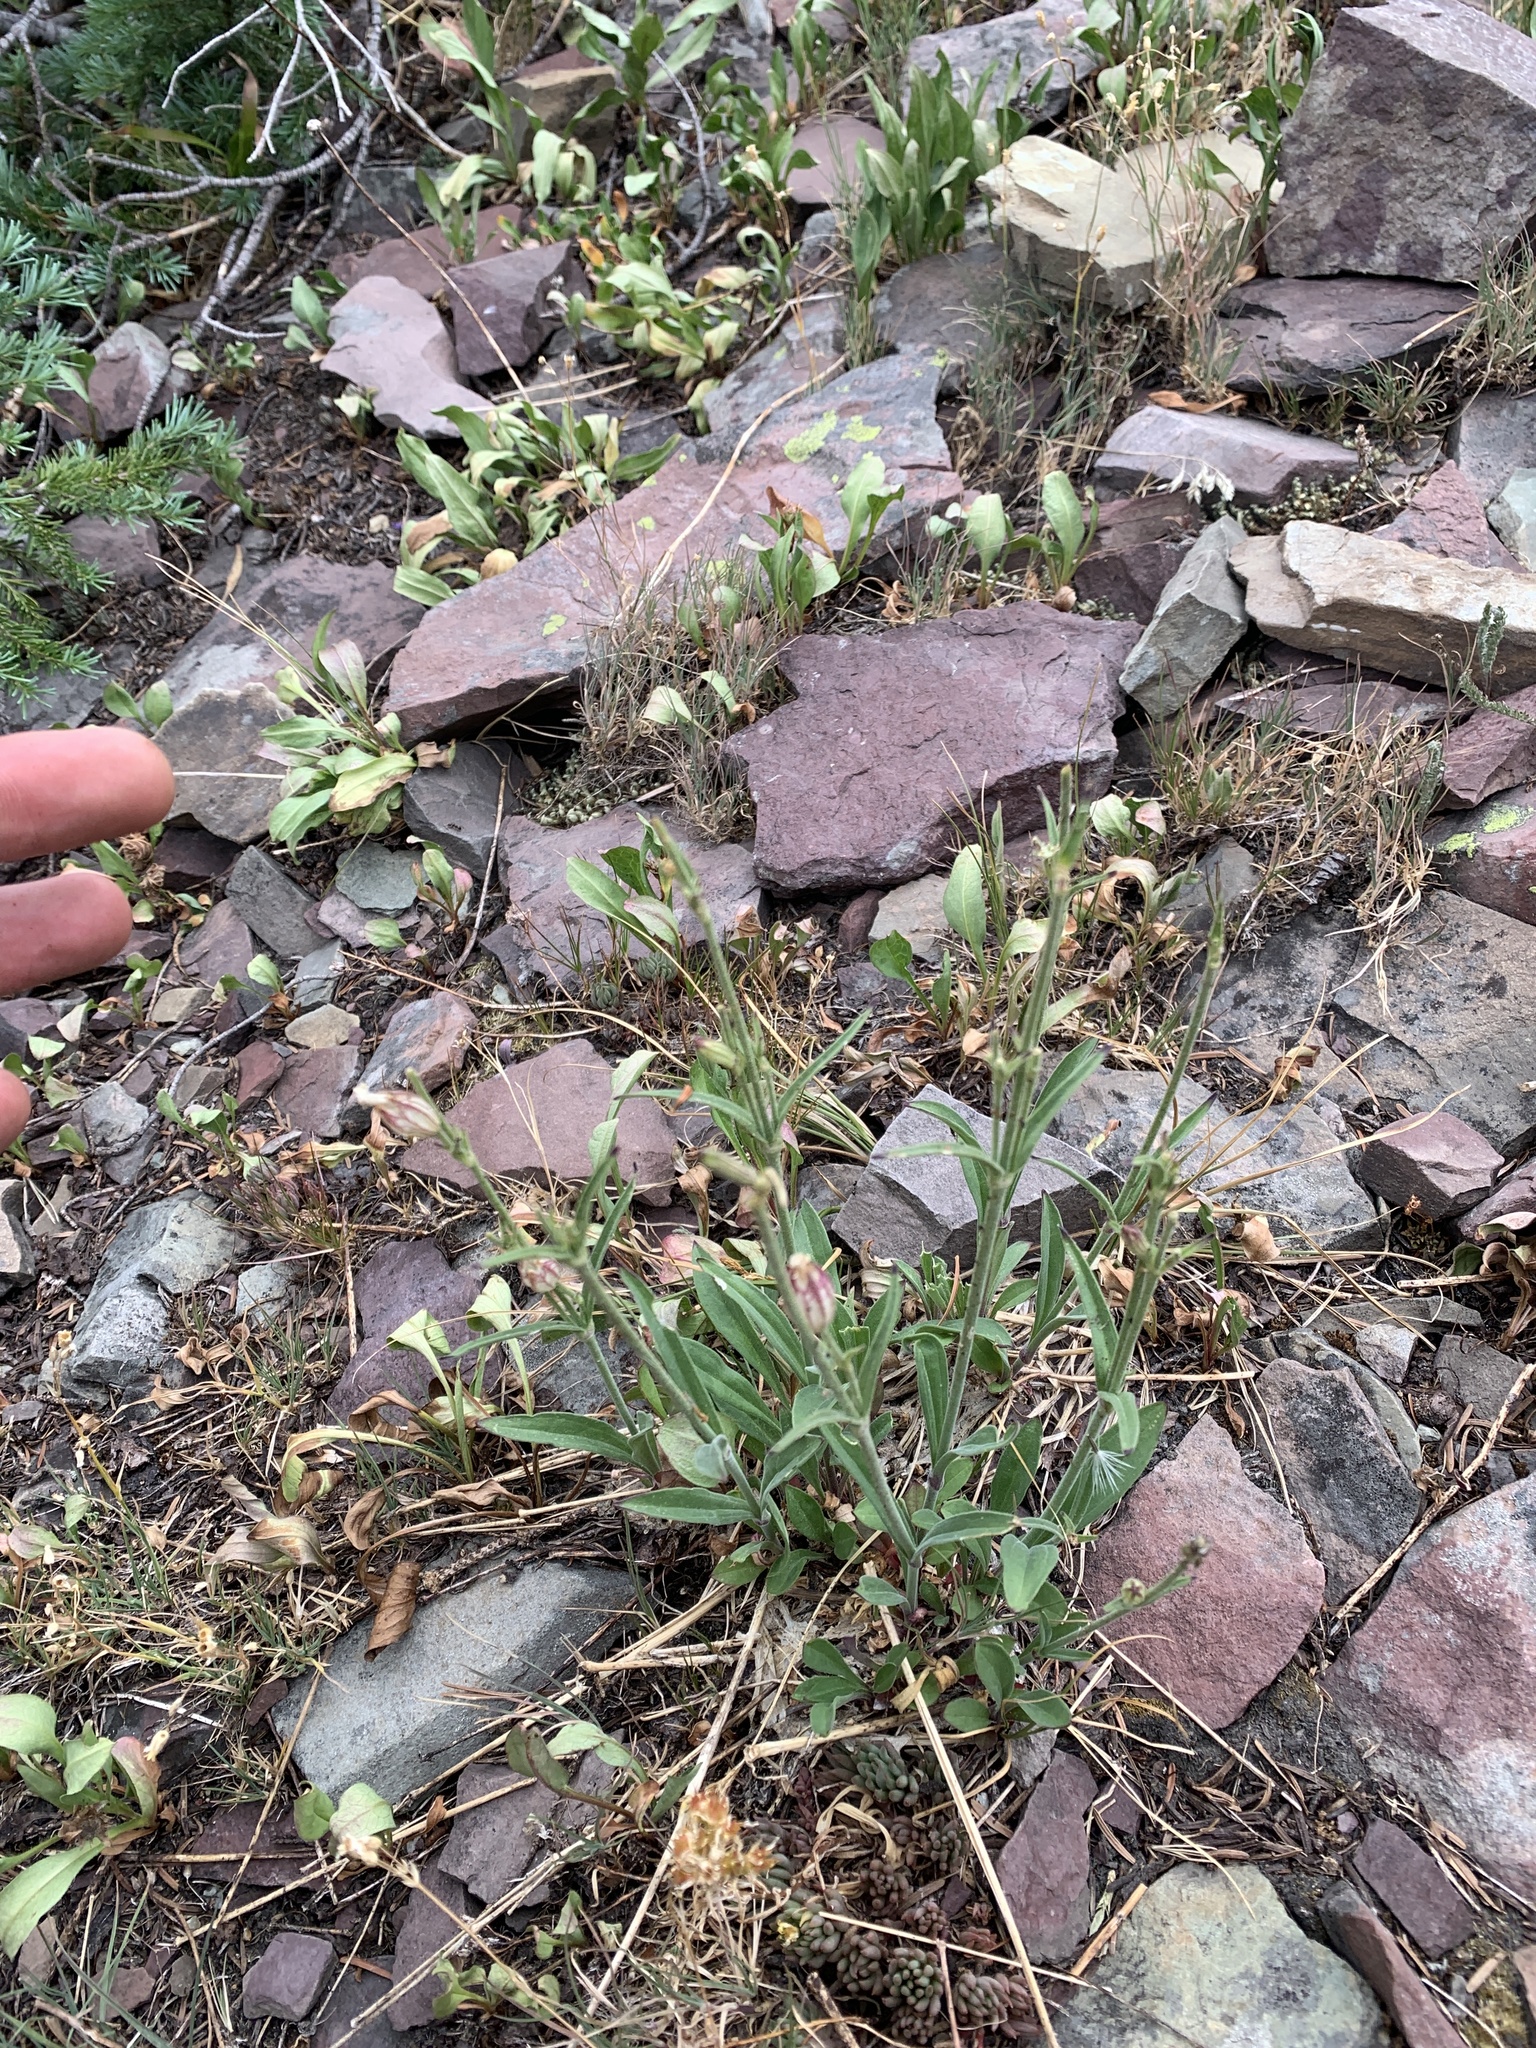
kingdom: Plantae
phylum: Tracheophyta
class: Magnoliopsida
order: Caryophyllales
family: Caryophyllaceae
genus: Silene
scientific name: Silene parryi
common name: Parry's campion
